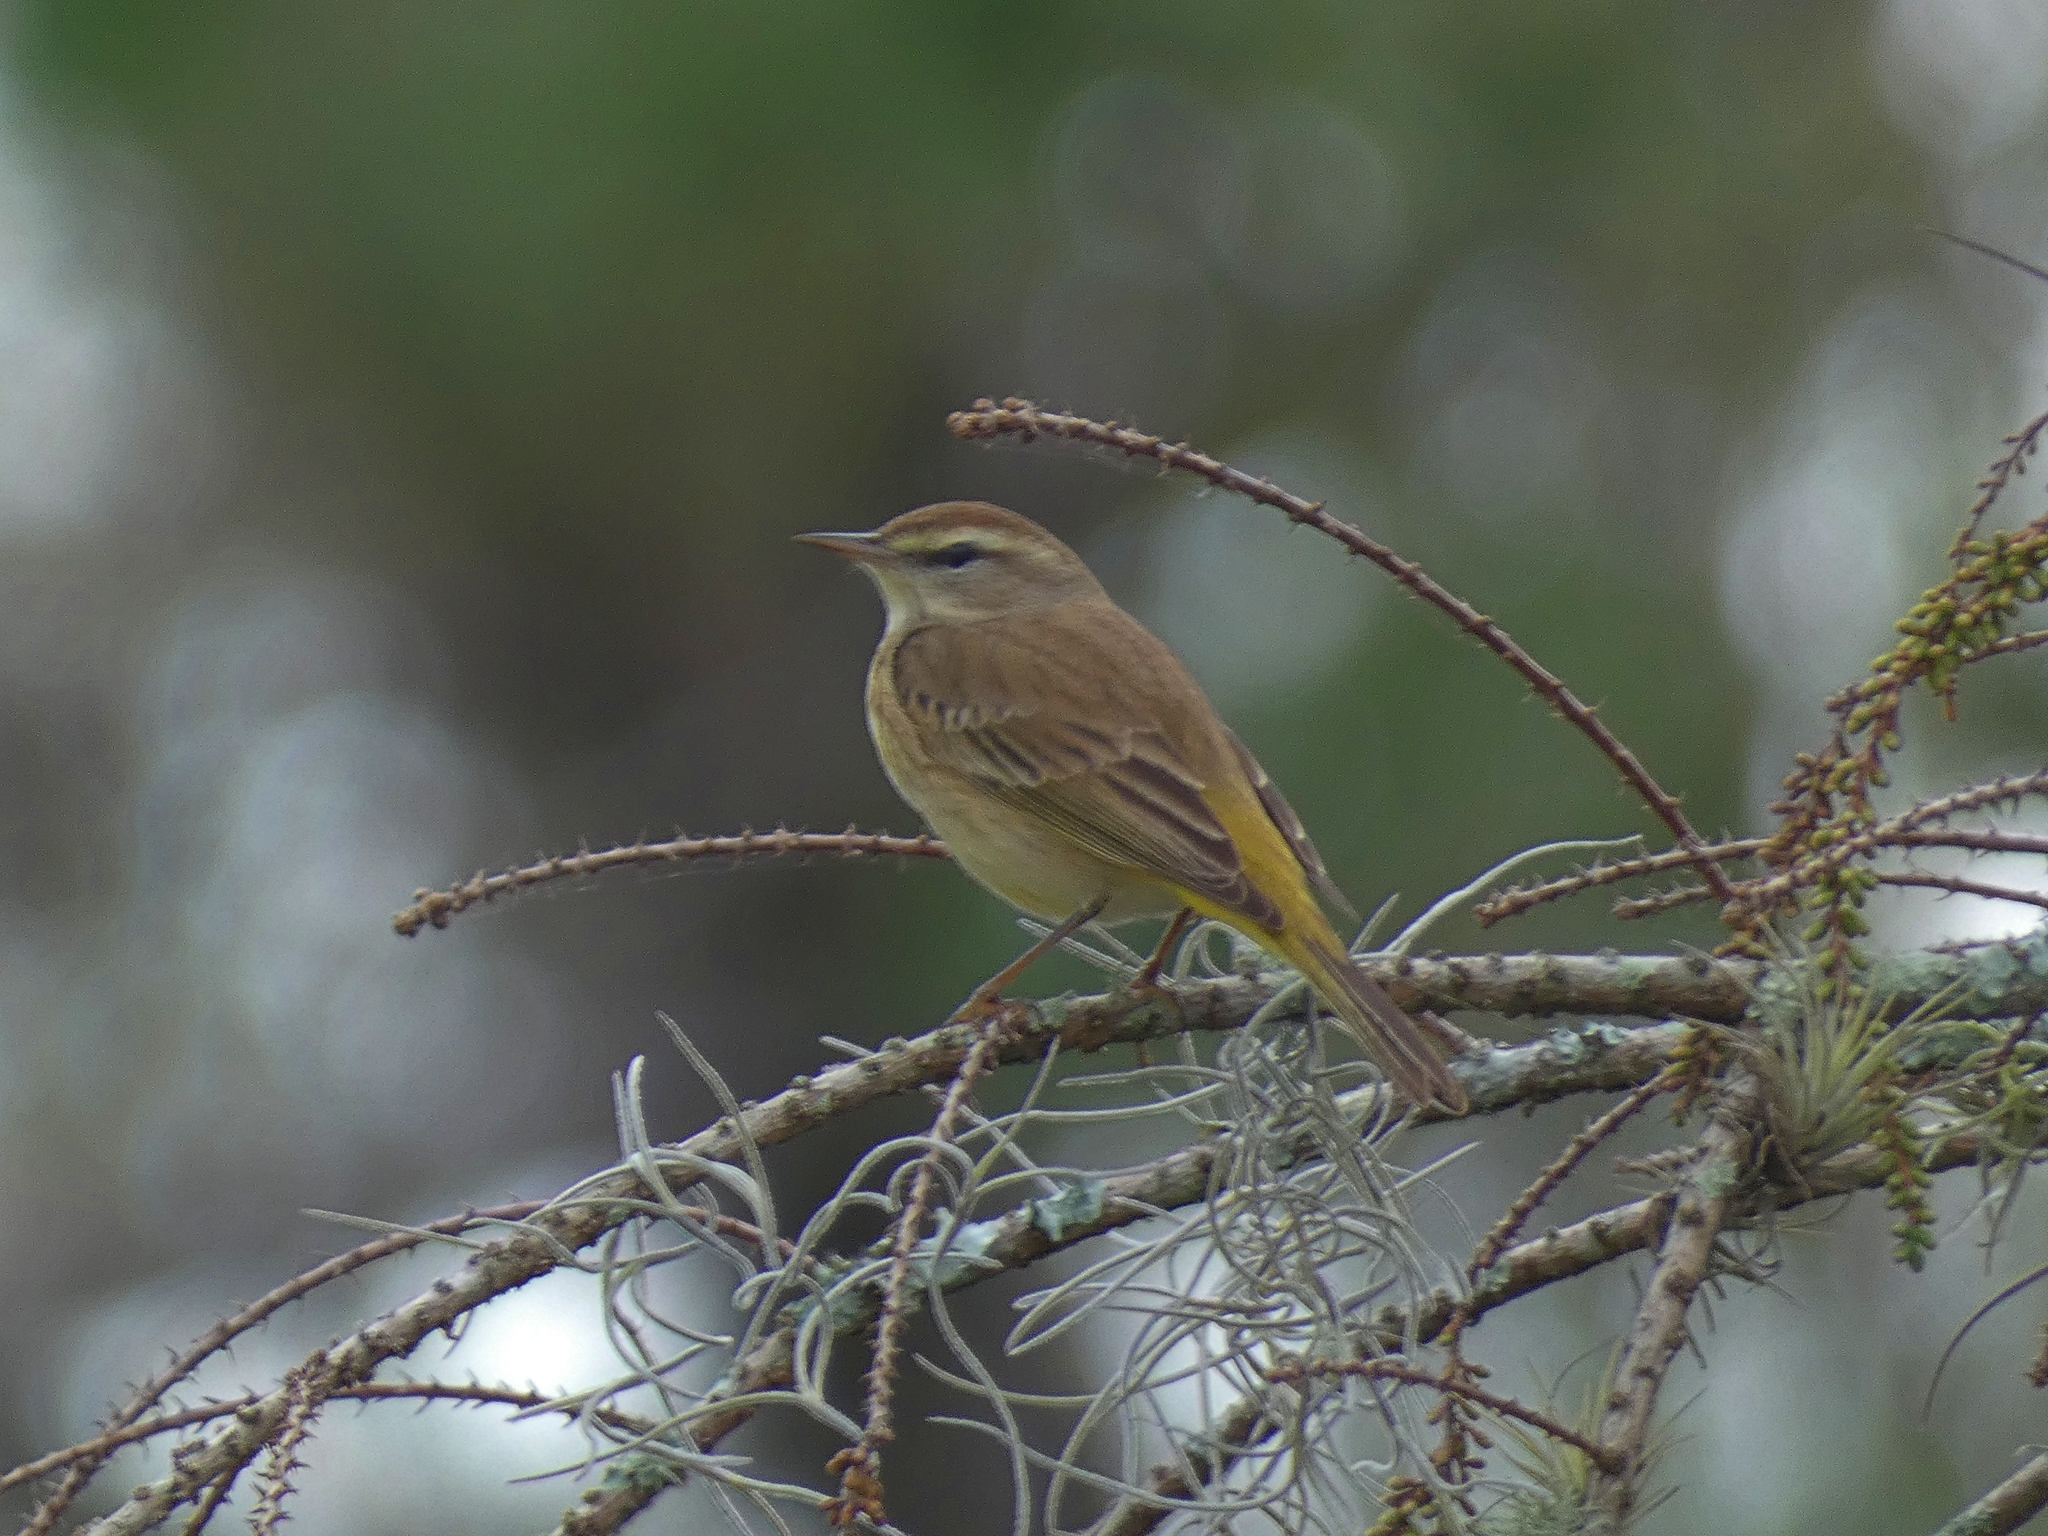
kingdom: Animalia
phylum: Chordata
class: Aves
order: Passeriformes
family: Parulidae
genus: Setophaga
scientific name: Setophaga palmarum
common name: Palm warbler
